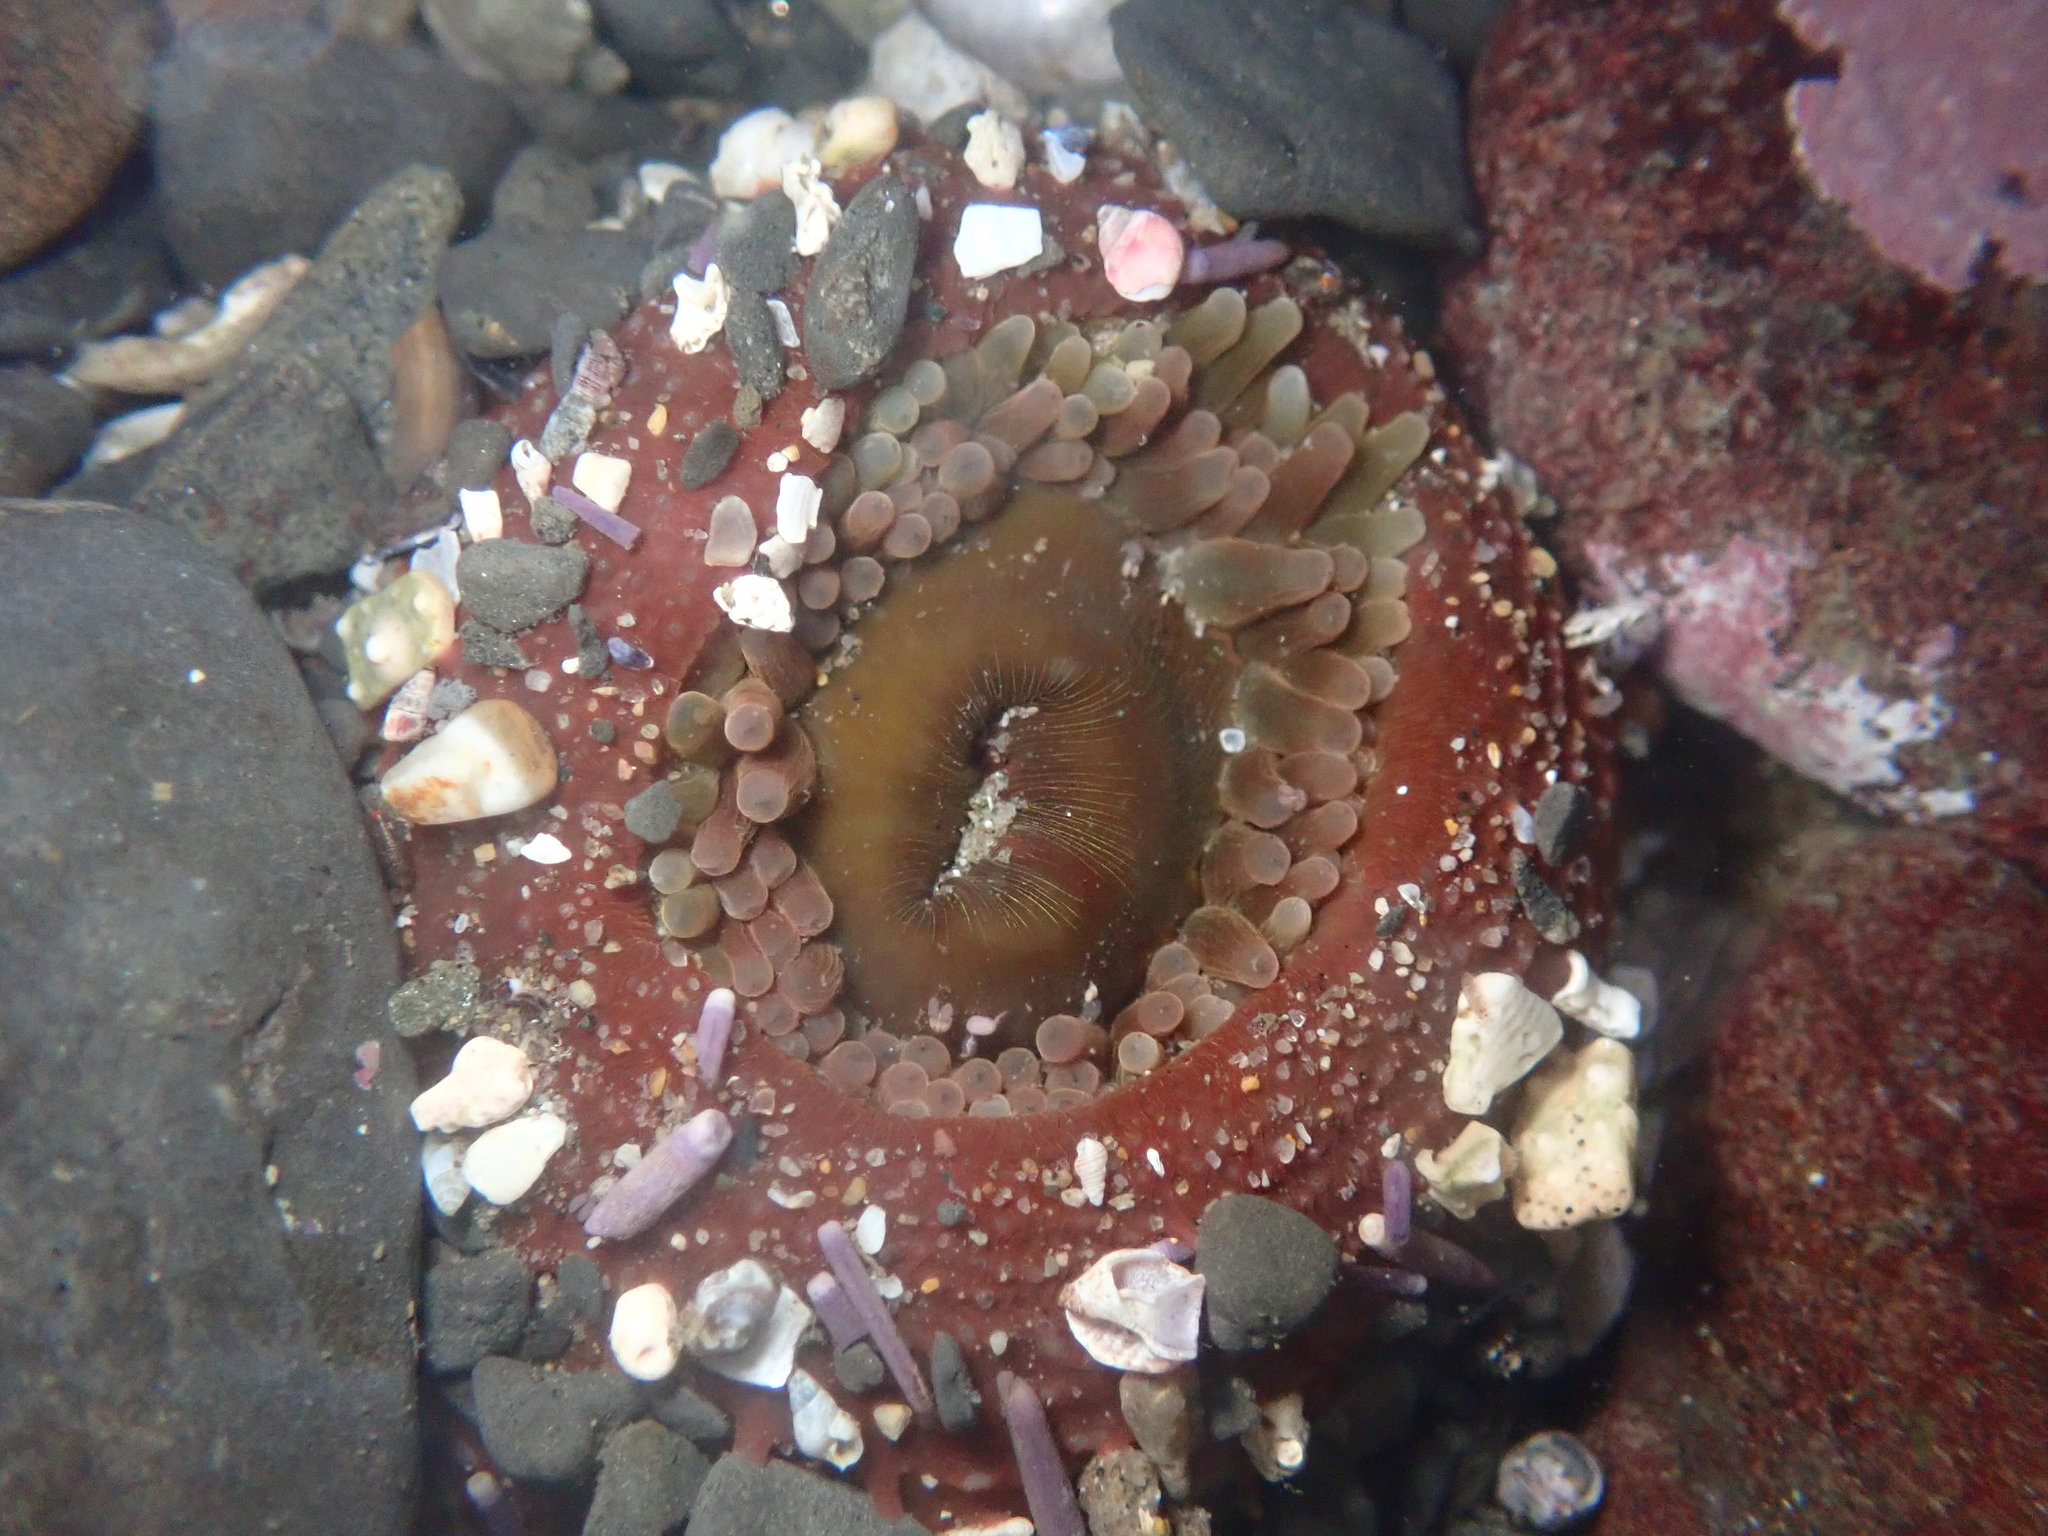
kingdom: Animalia
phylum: Cnidaria
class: Anthozoa
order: Actiniaria
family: Actiniidae
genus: Urticina
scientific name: Urticina clandestina
